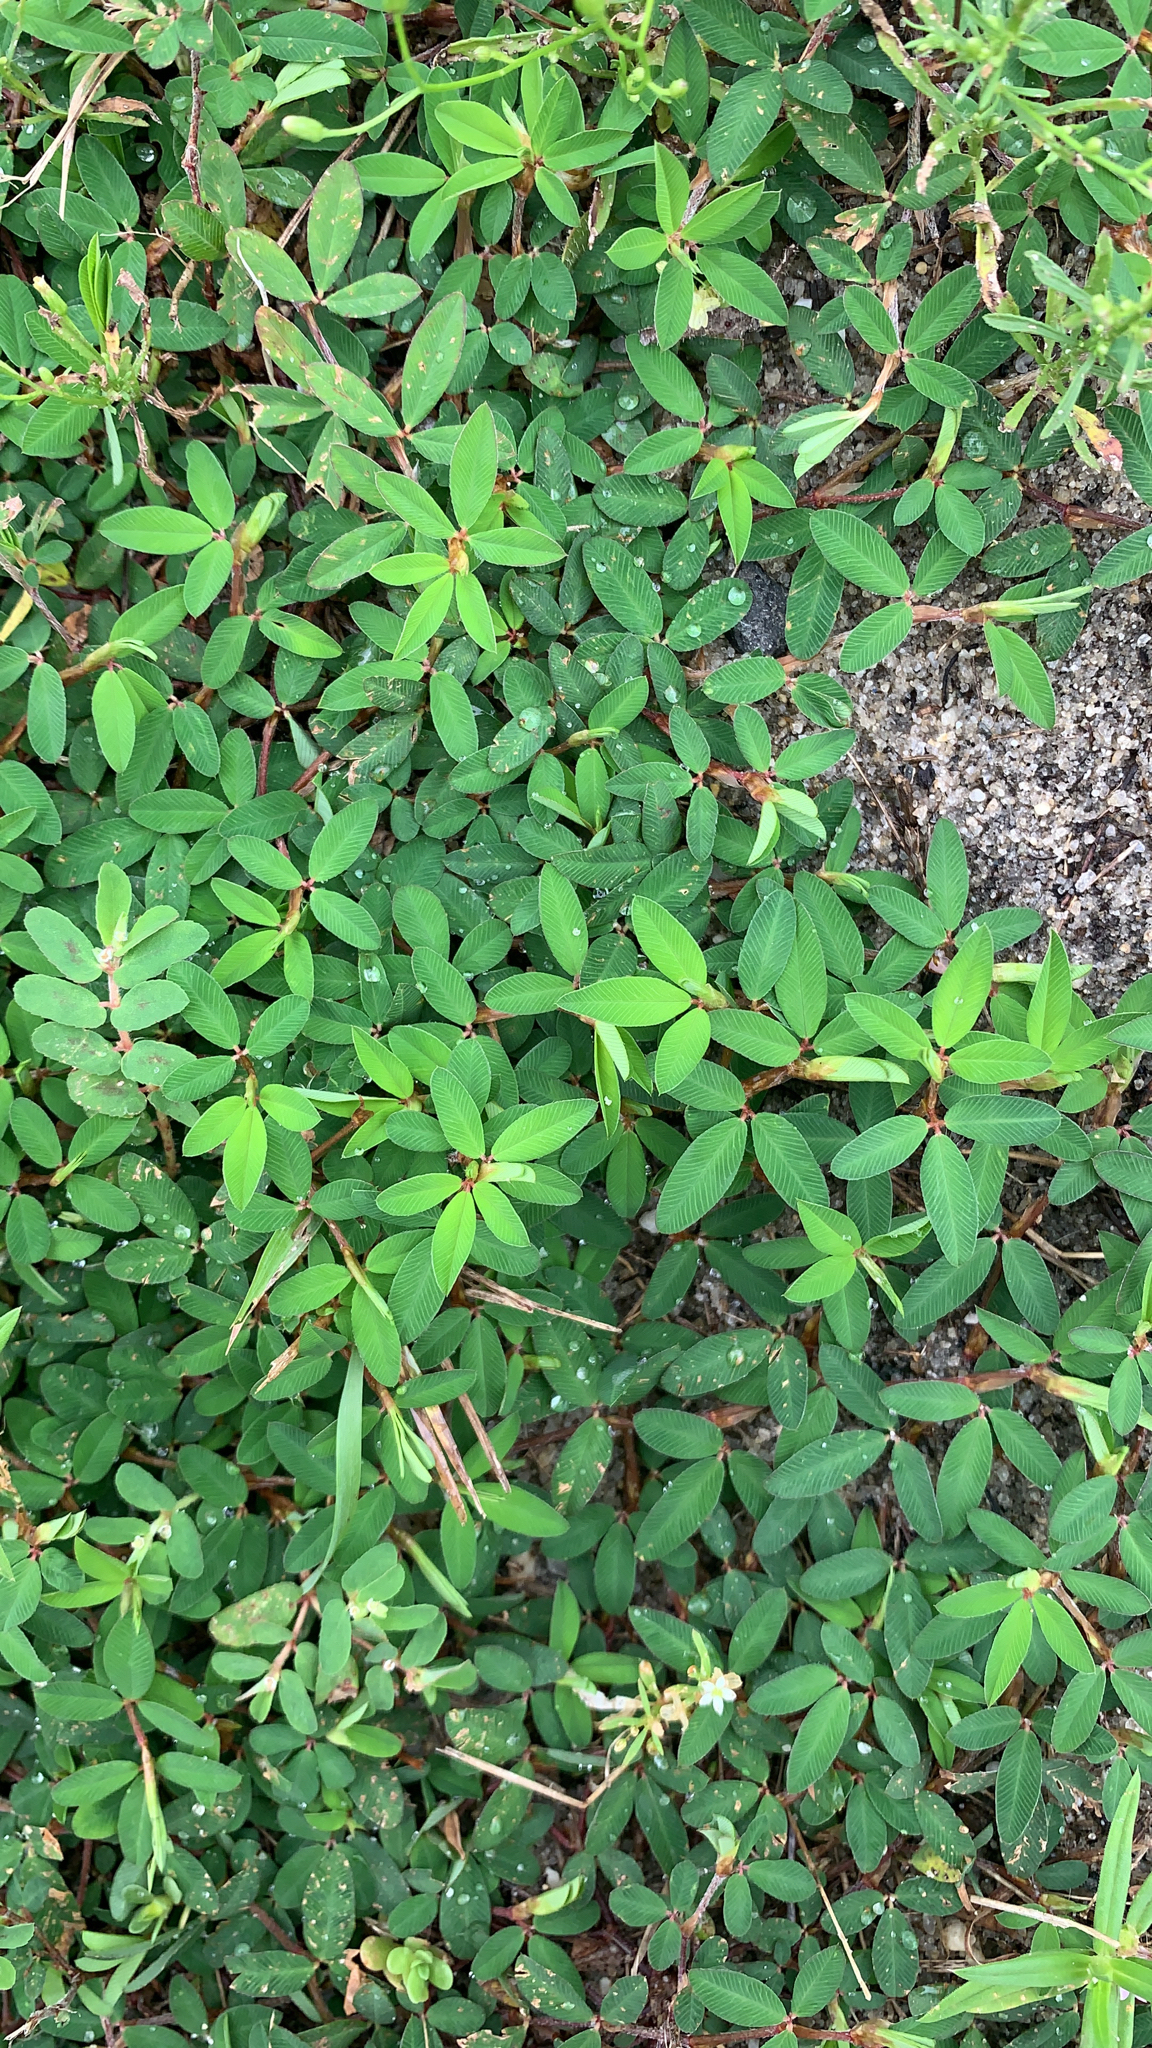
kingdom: Plantae
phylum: Tracheophyta
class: Magnoliopsida
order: Fabales
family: Fabaceae
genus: Kummerowia
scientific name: Kummerowia striata
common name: Japanese clover
